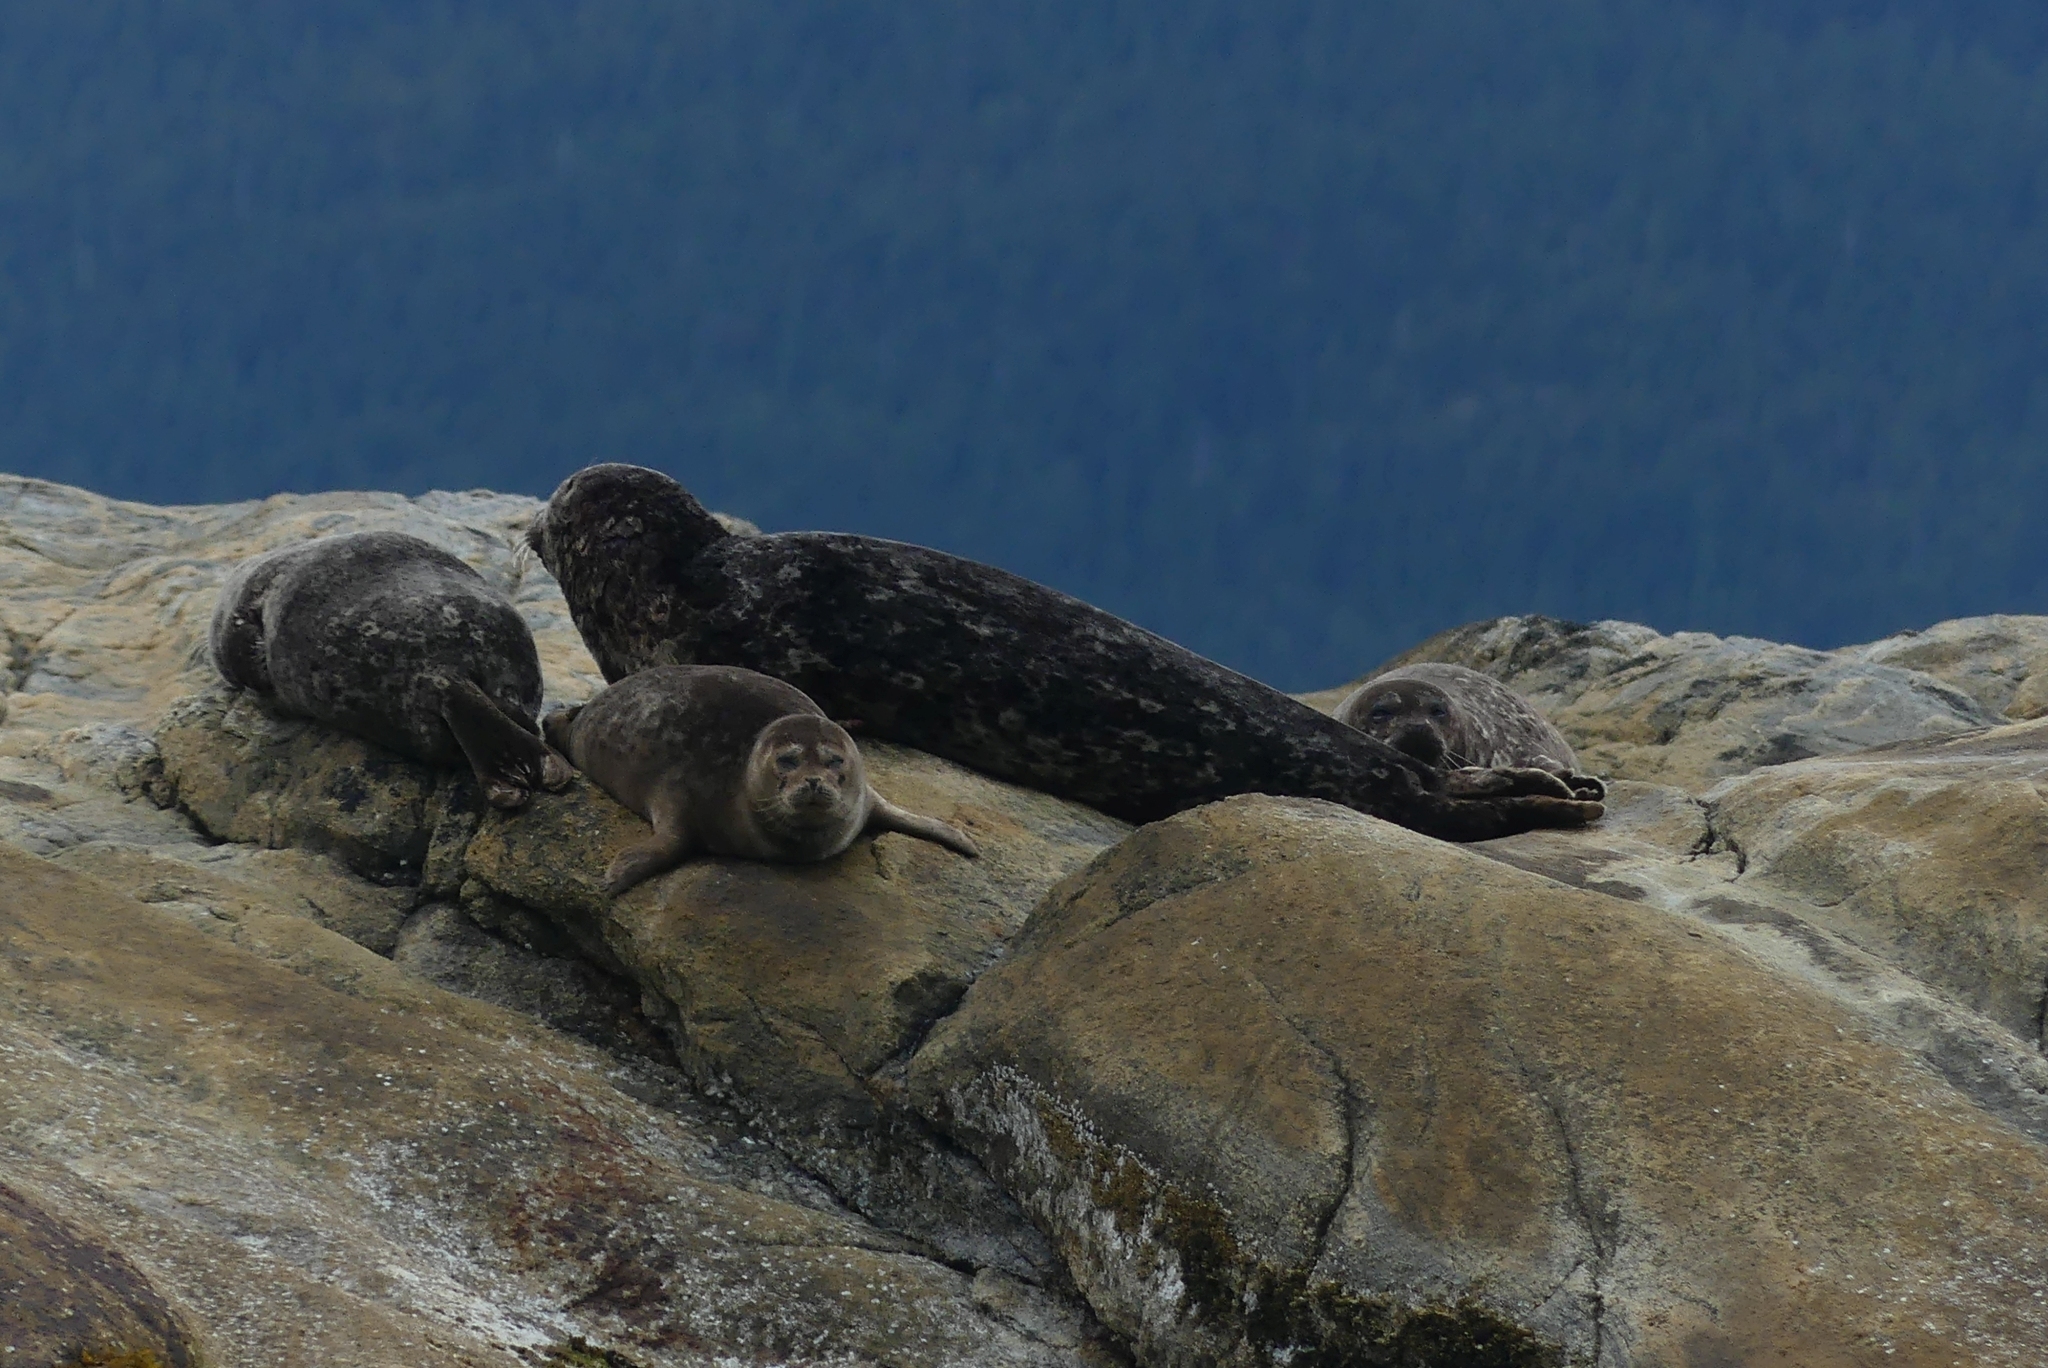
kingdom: Animalia
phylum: Chordata
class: Mammalia
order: Carnivora
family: Phocidae
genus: Phoca
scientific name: Phoca vitulina
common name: Harbor seal
